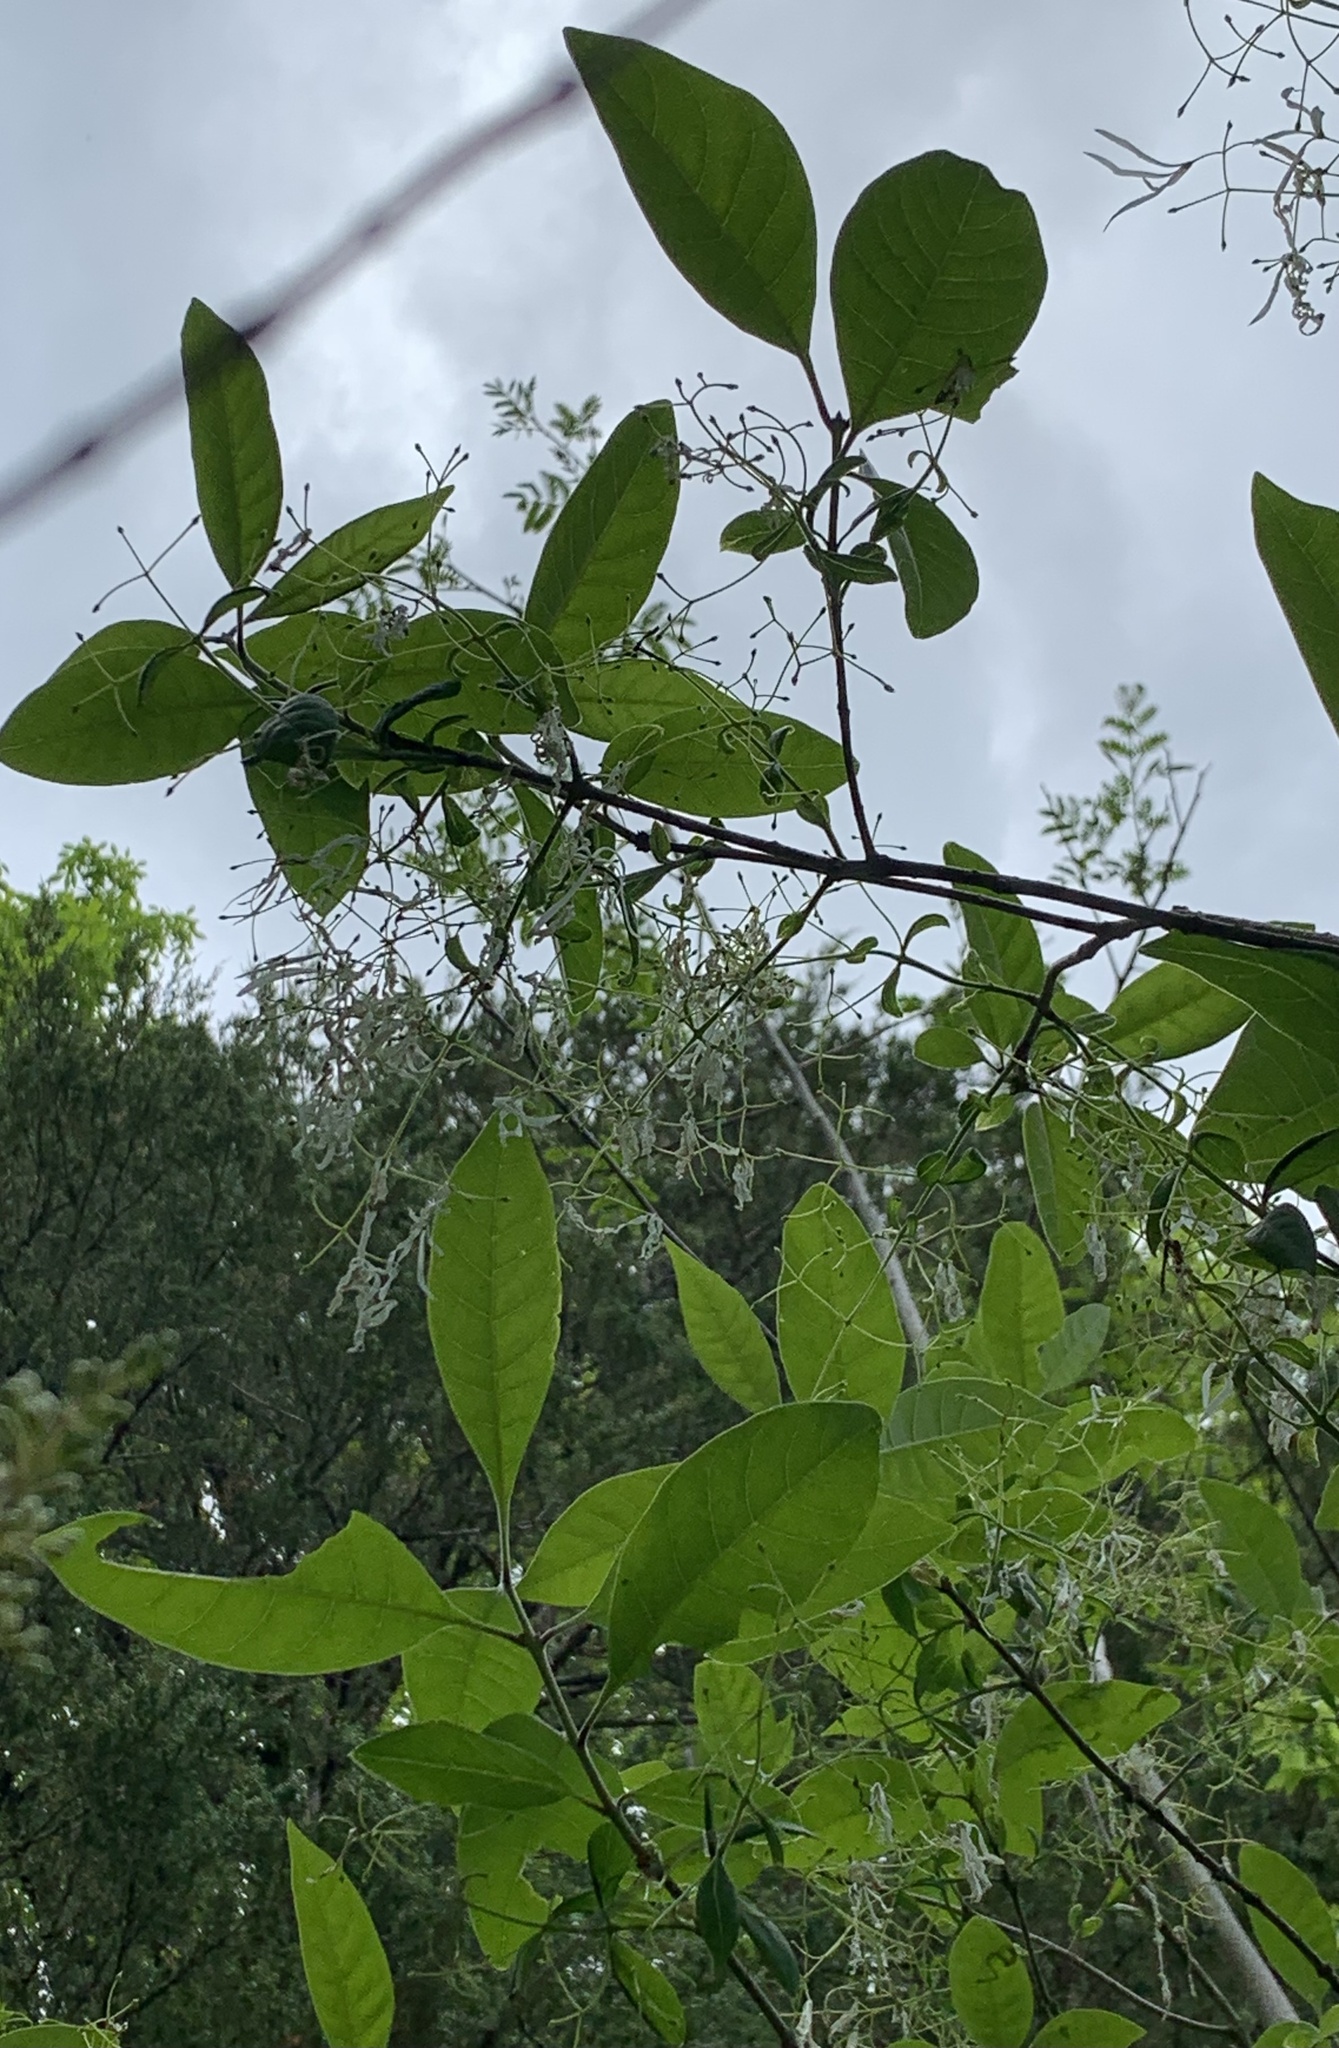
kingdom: Plantae
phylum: Tracheophyta
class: Magnoliopsida
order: Lamiales
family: Oleaceae
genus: Chionanthus
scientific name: Chionanthus virginicus
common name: American fringetree
